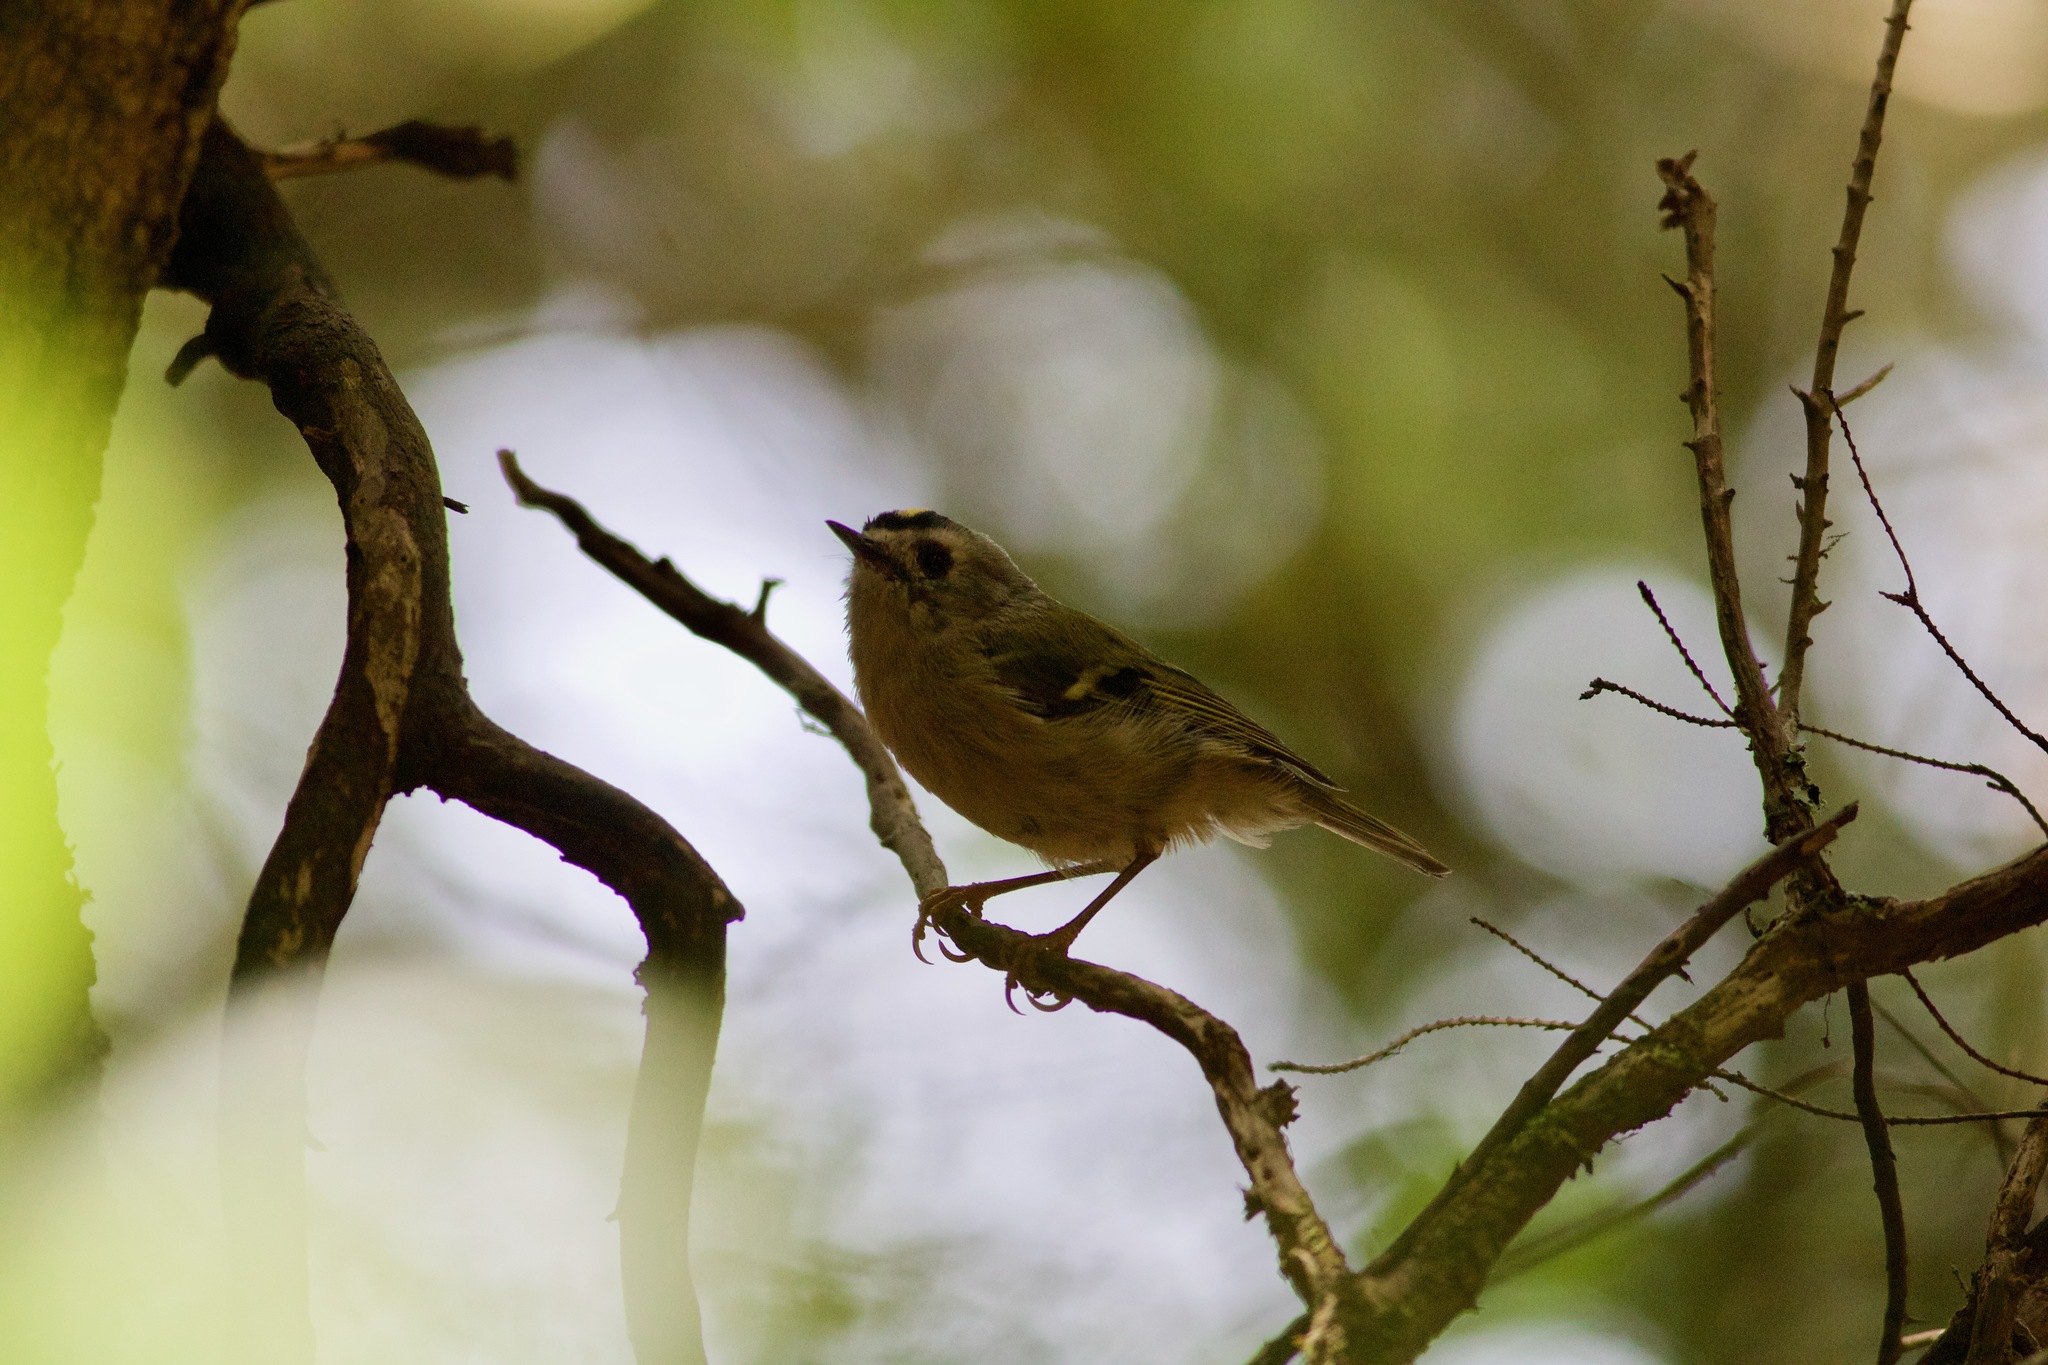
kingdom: Animalia
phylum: Chordata
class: Aves
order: Passeriformes
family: Regulidae
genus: Regulus
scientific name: Regulus regulus
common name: Goldcrest
